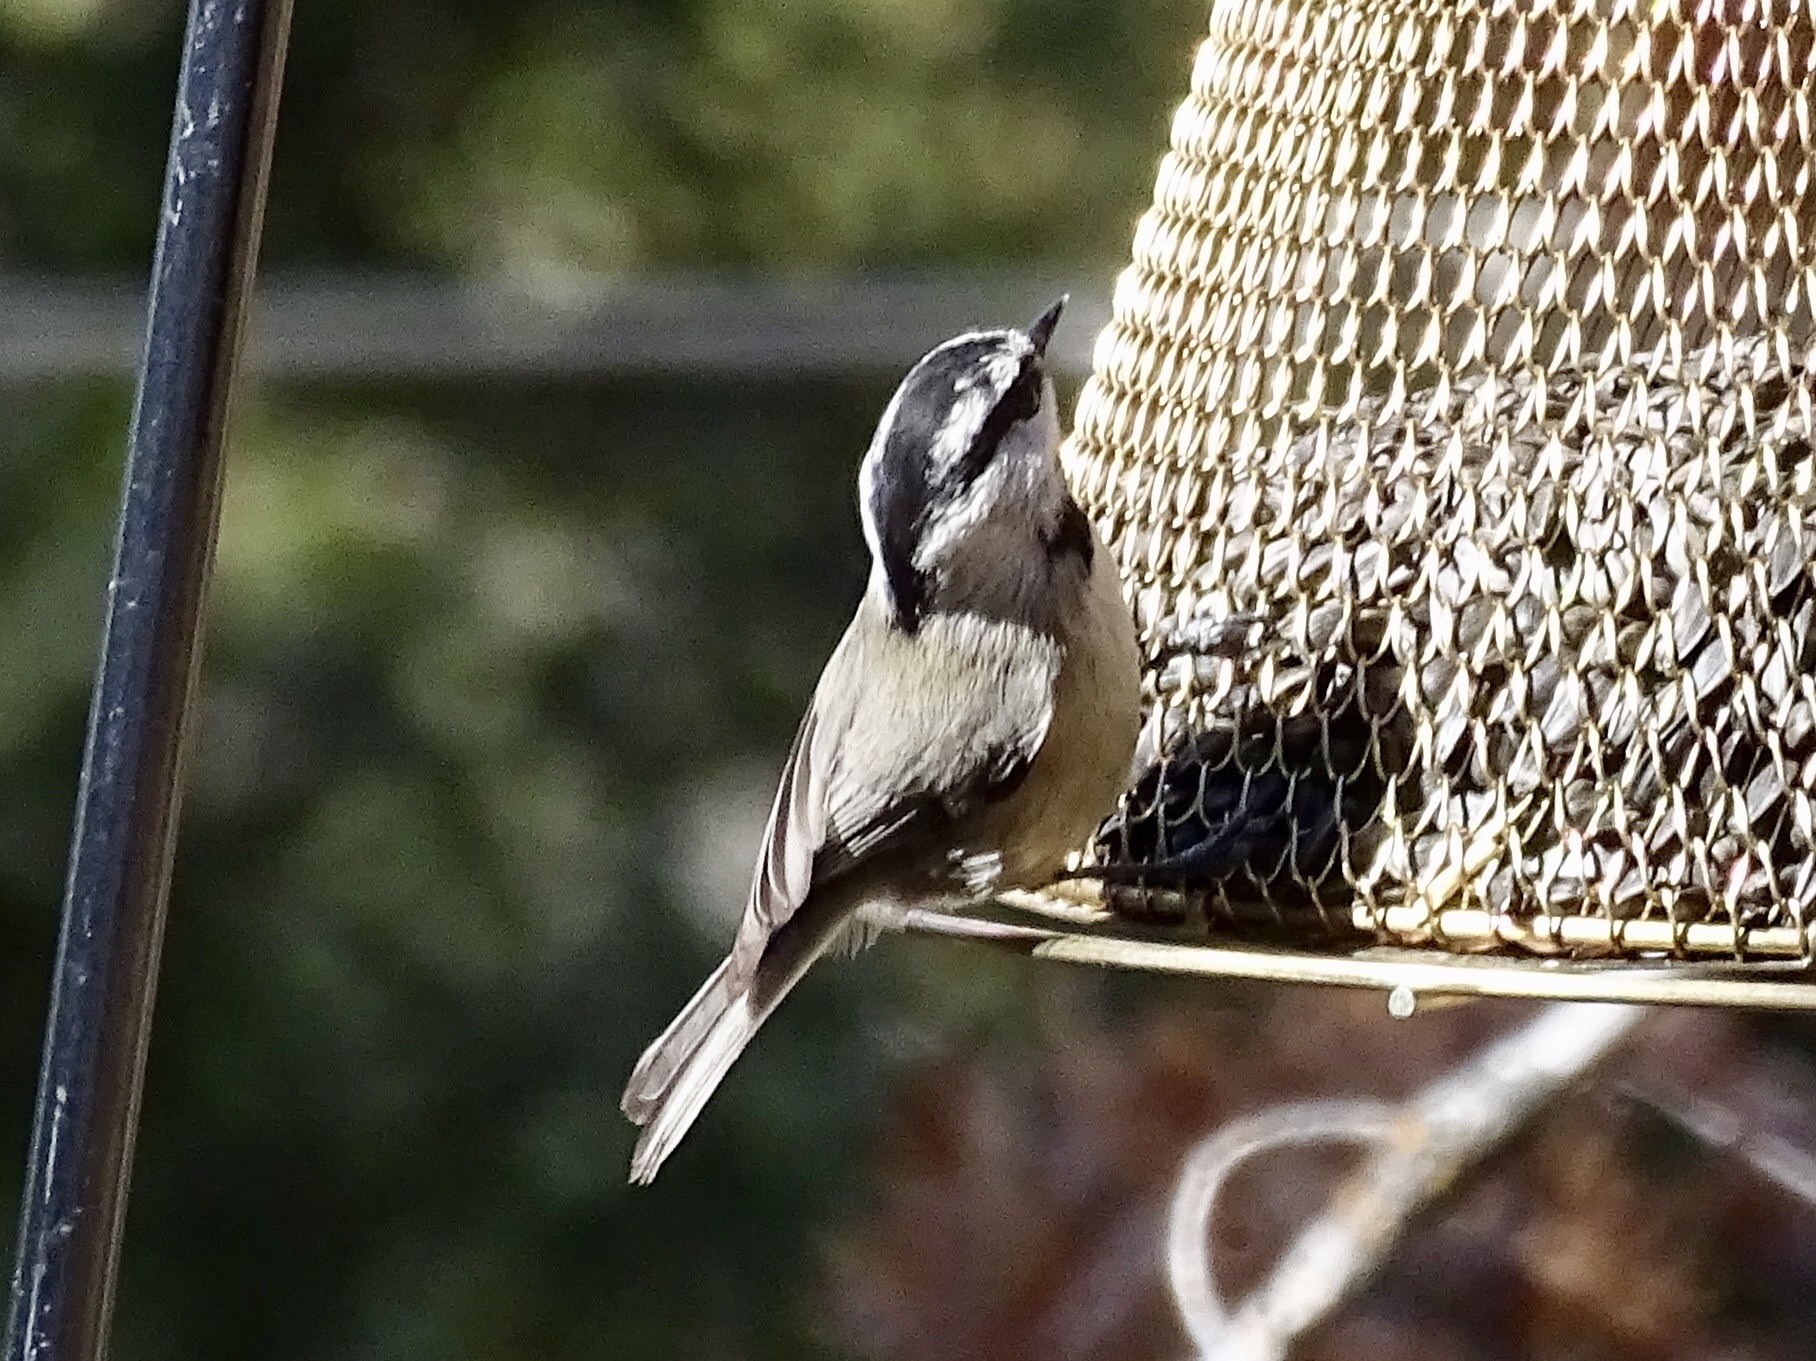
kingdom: Animalia
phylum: Chordata
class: Aves
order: Passeriformes
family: Paridae
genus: Poecile
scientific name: Poecile gambeli
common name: Mountain chickadee
